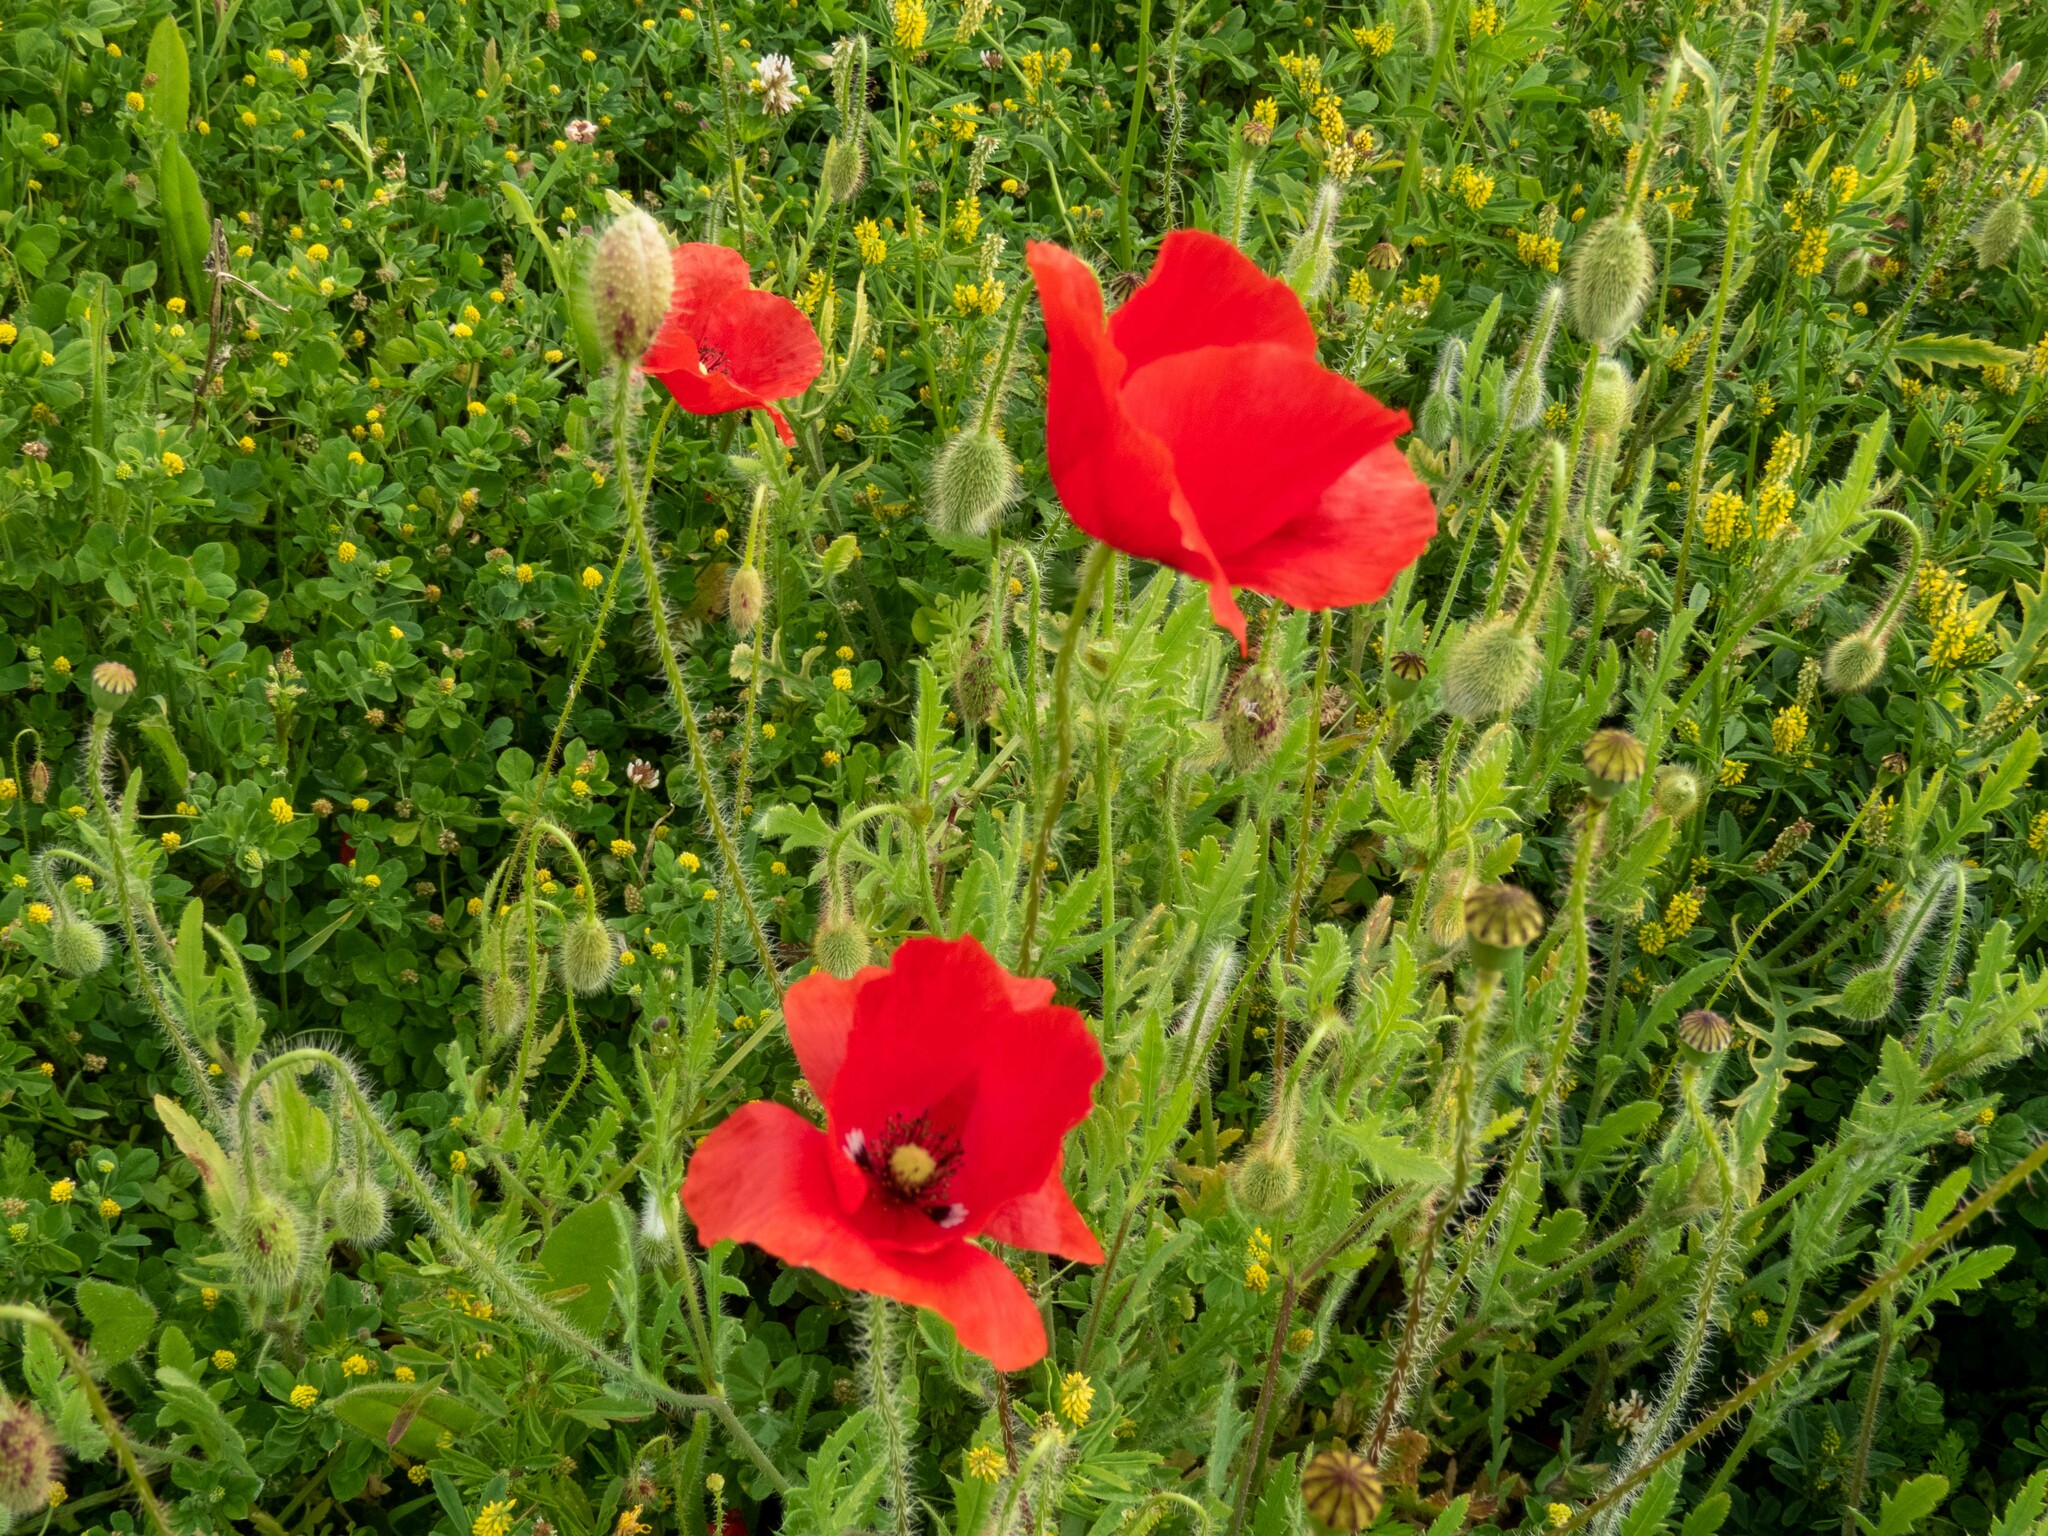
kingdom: Plantae
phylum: Tracheophyta
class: Magnoliopsida
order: Ranunculales
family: Papaveraceae
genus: Papaver
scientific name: Papaver rhoeas
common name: Corn poppy
